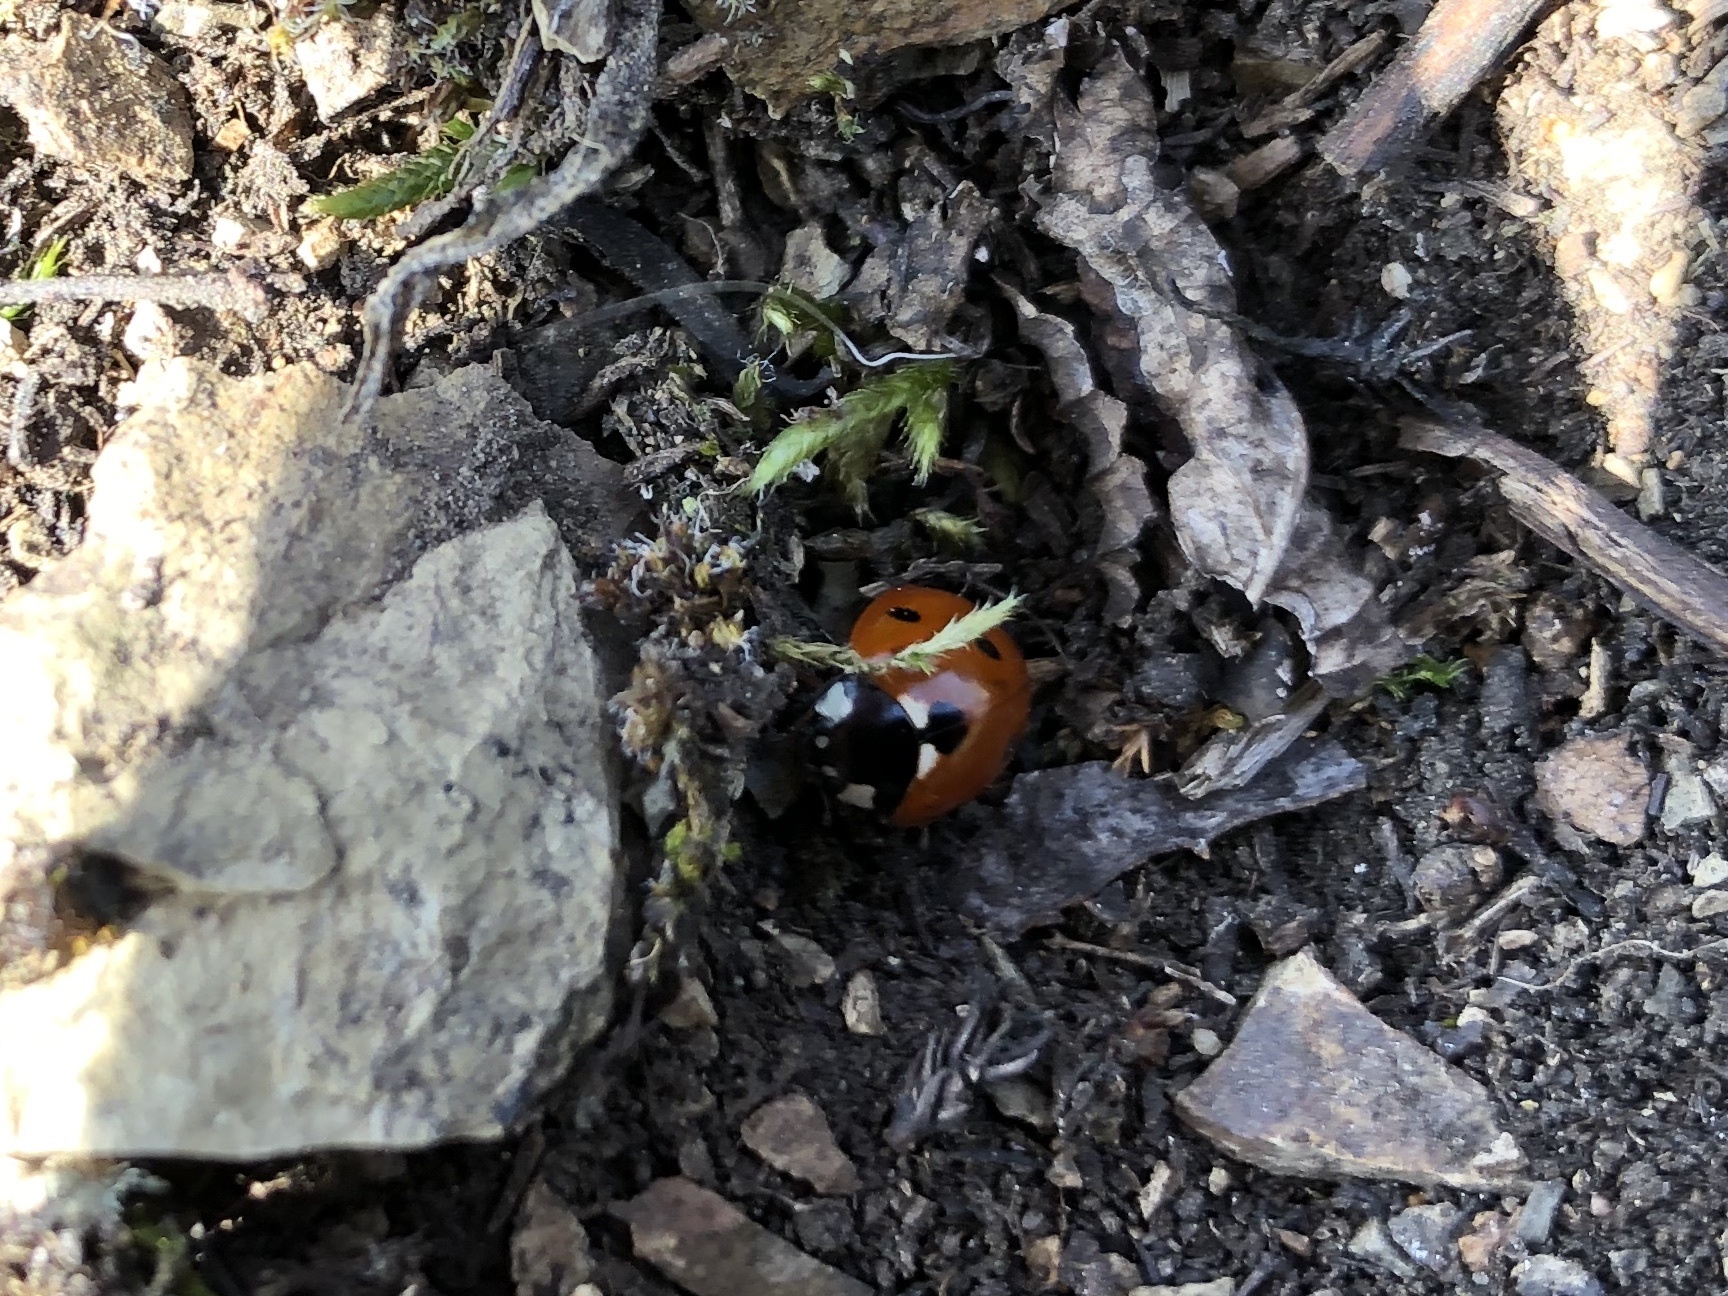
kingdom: Animalia
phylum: Arthropoda
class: Insecta
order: Coleoptera
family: Coccinellidae
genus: Coccinella
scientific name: Coccinella septempunctata
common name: Sevenspotted lady beetle
